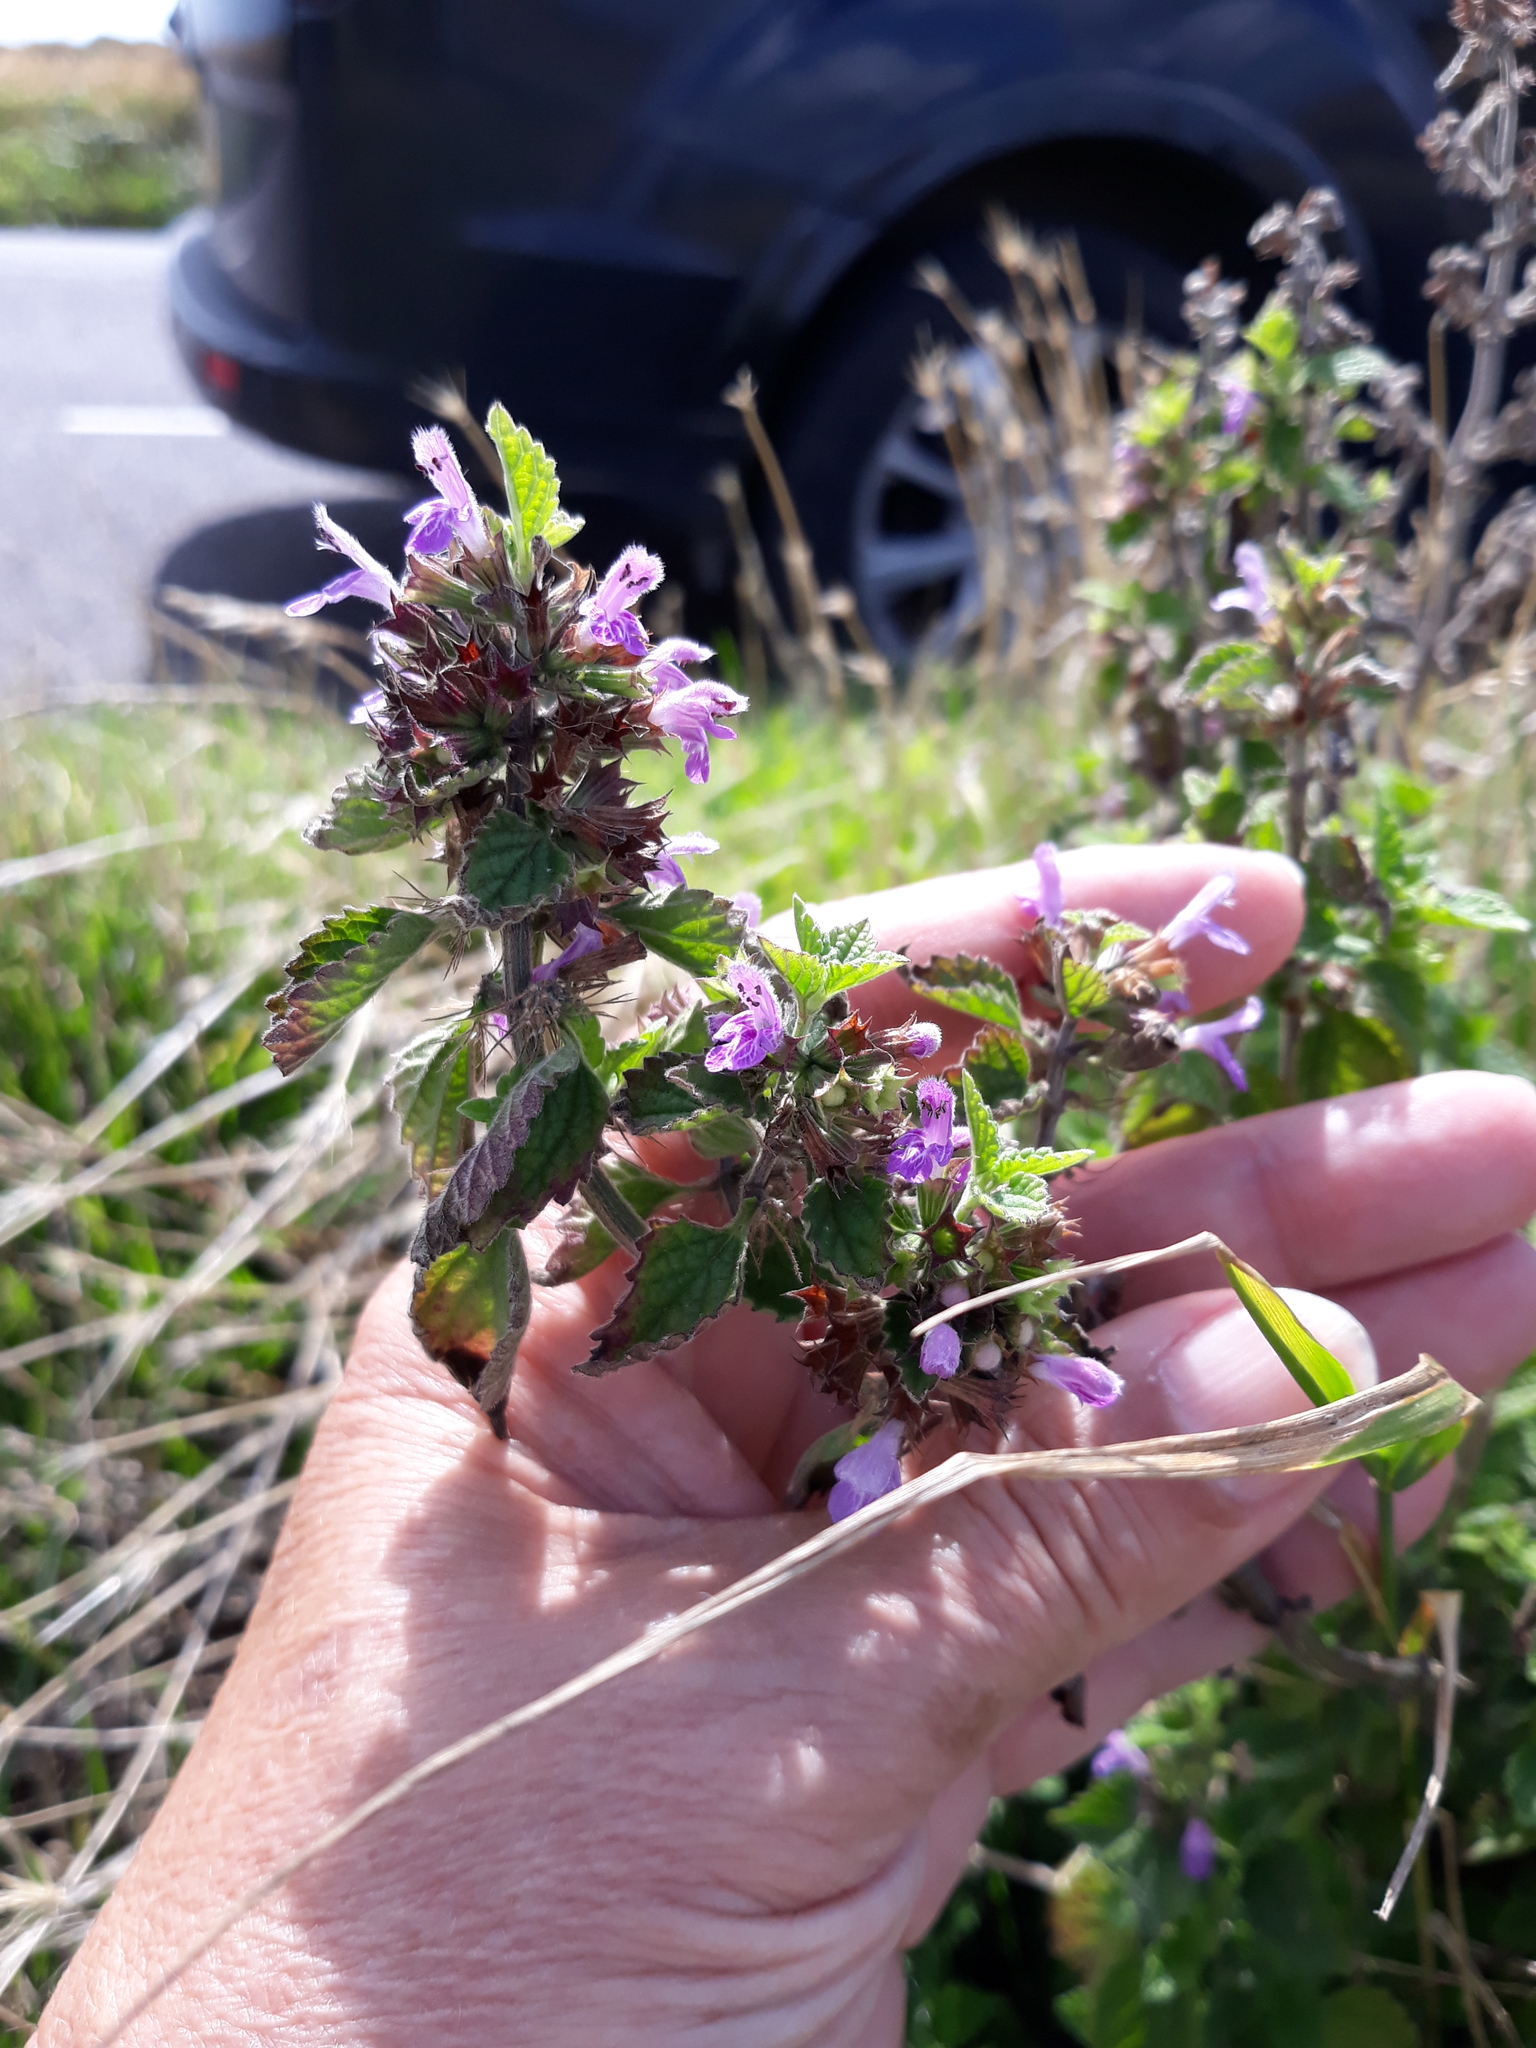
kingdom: Plantae
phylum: Tracheophyta
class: Magnoliopsida
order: Lamiales
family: Lamiaceae
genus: Ballota
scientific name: Ballota nigra
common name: Black horehound
